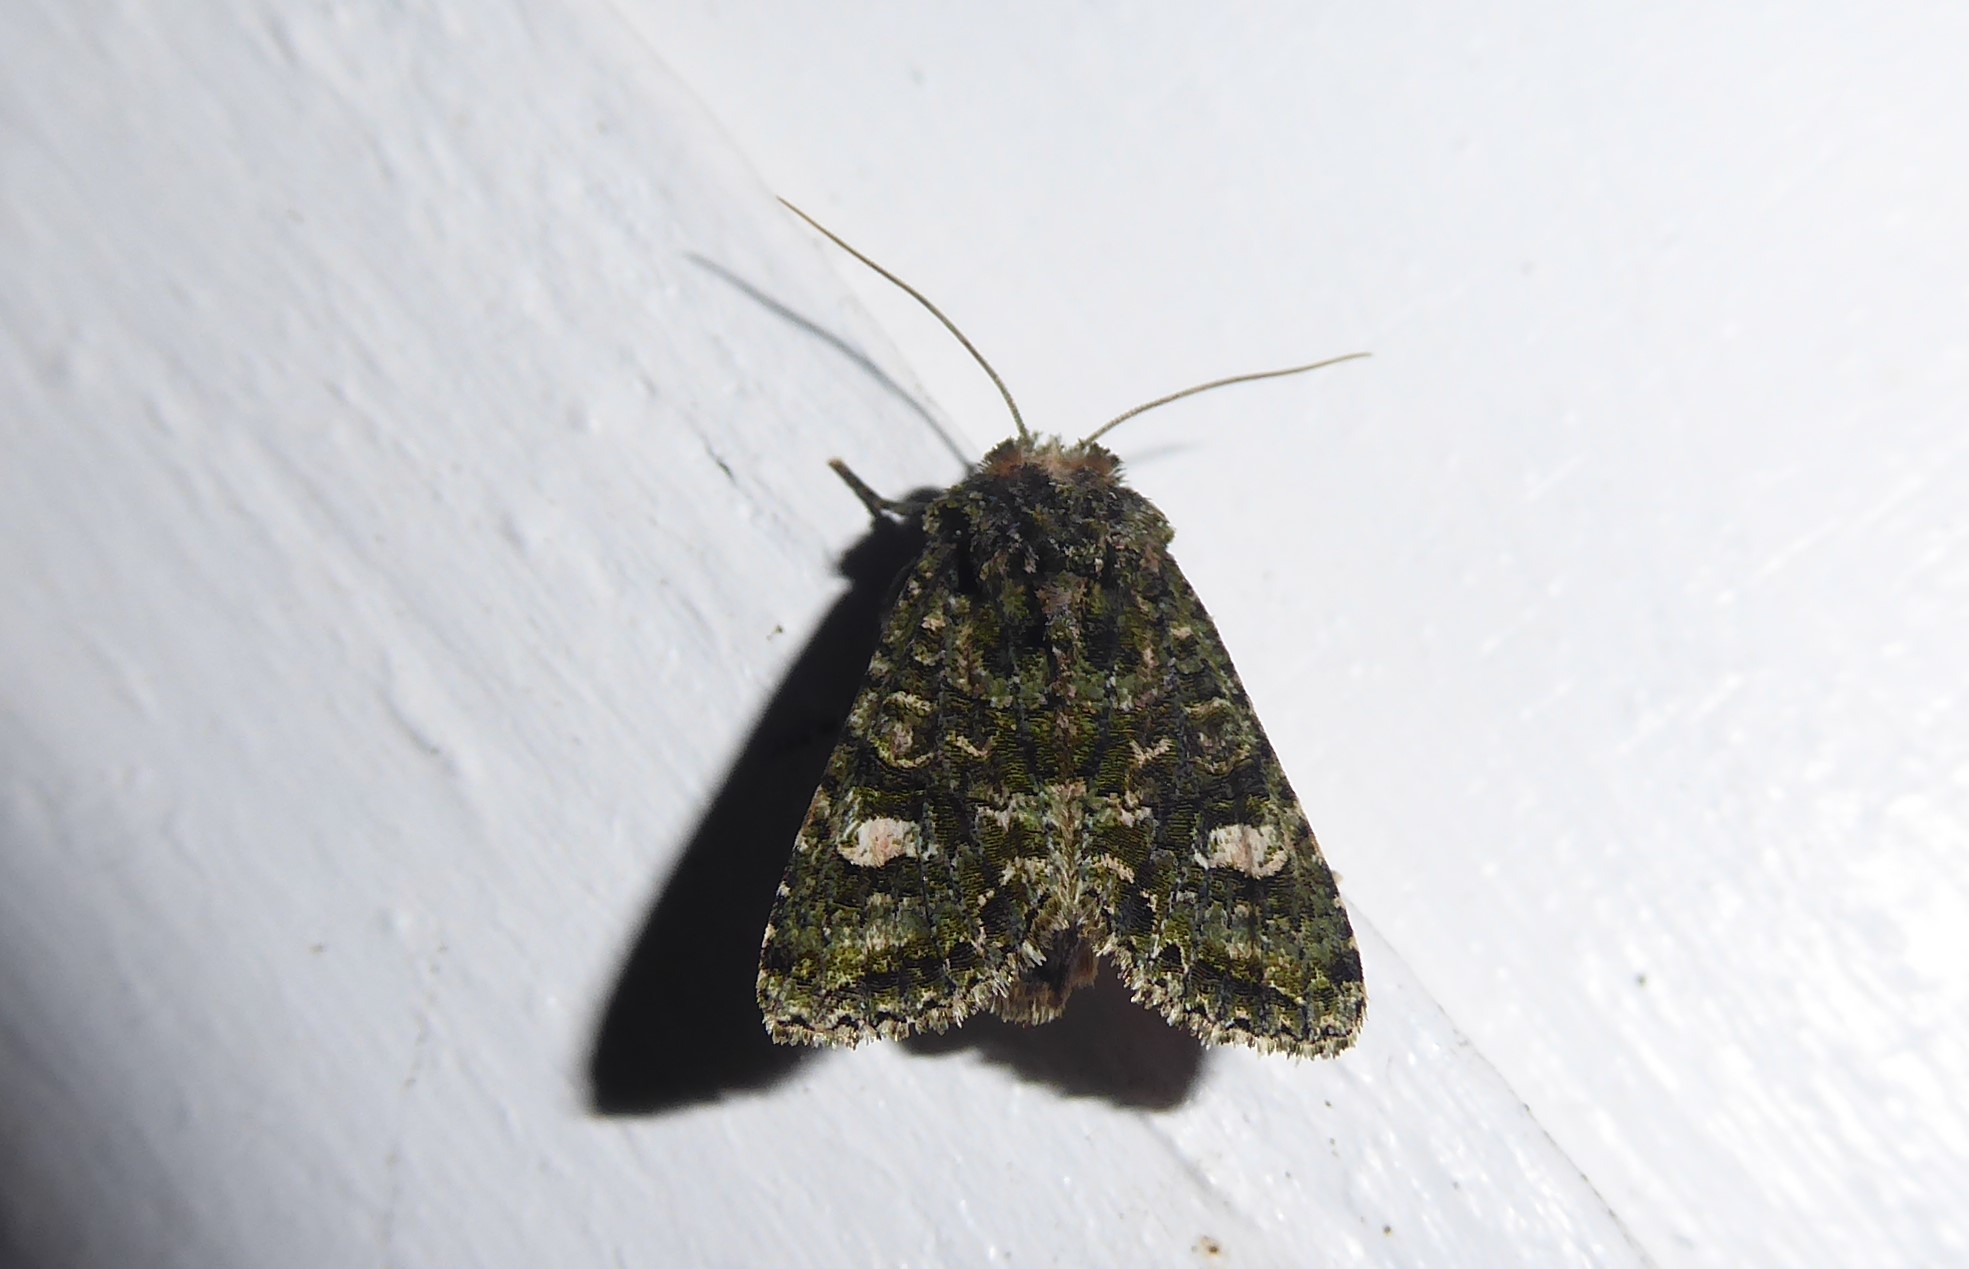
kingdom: Animalia
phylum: Arthropoda
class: Insecta
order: Lepidoptera
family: Noctuidae
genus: Ichneutica
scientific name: Ichneutica
